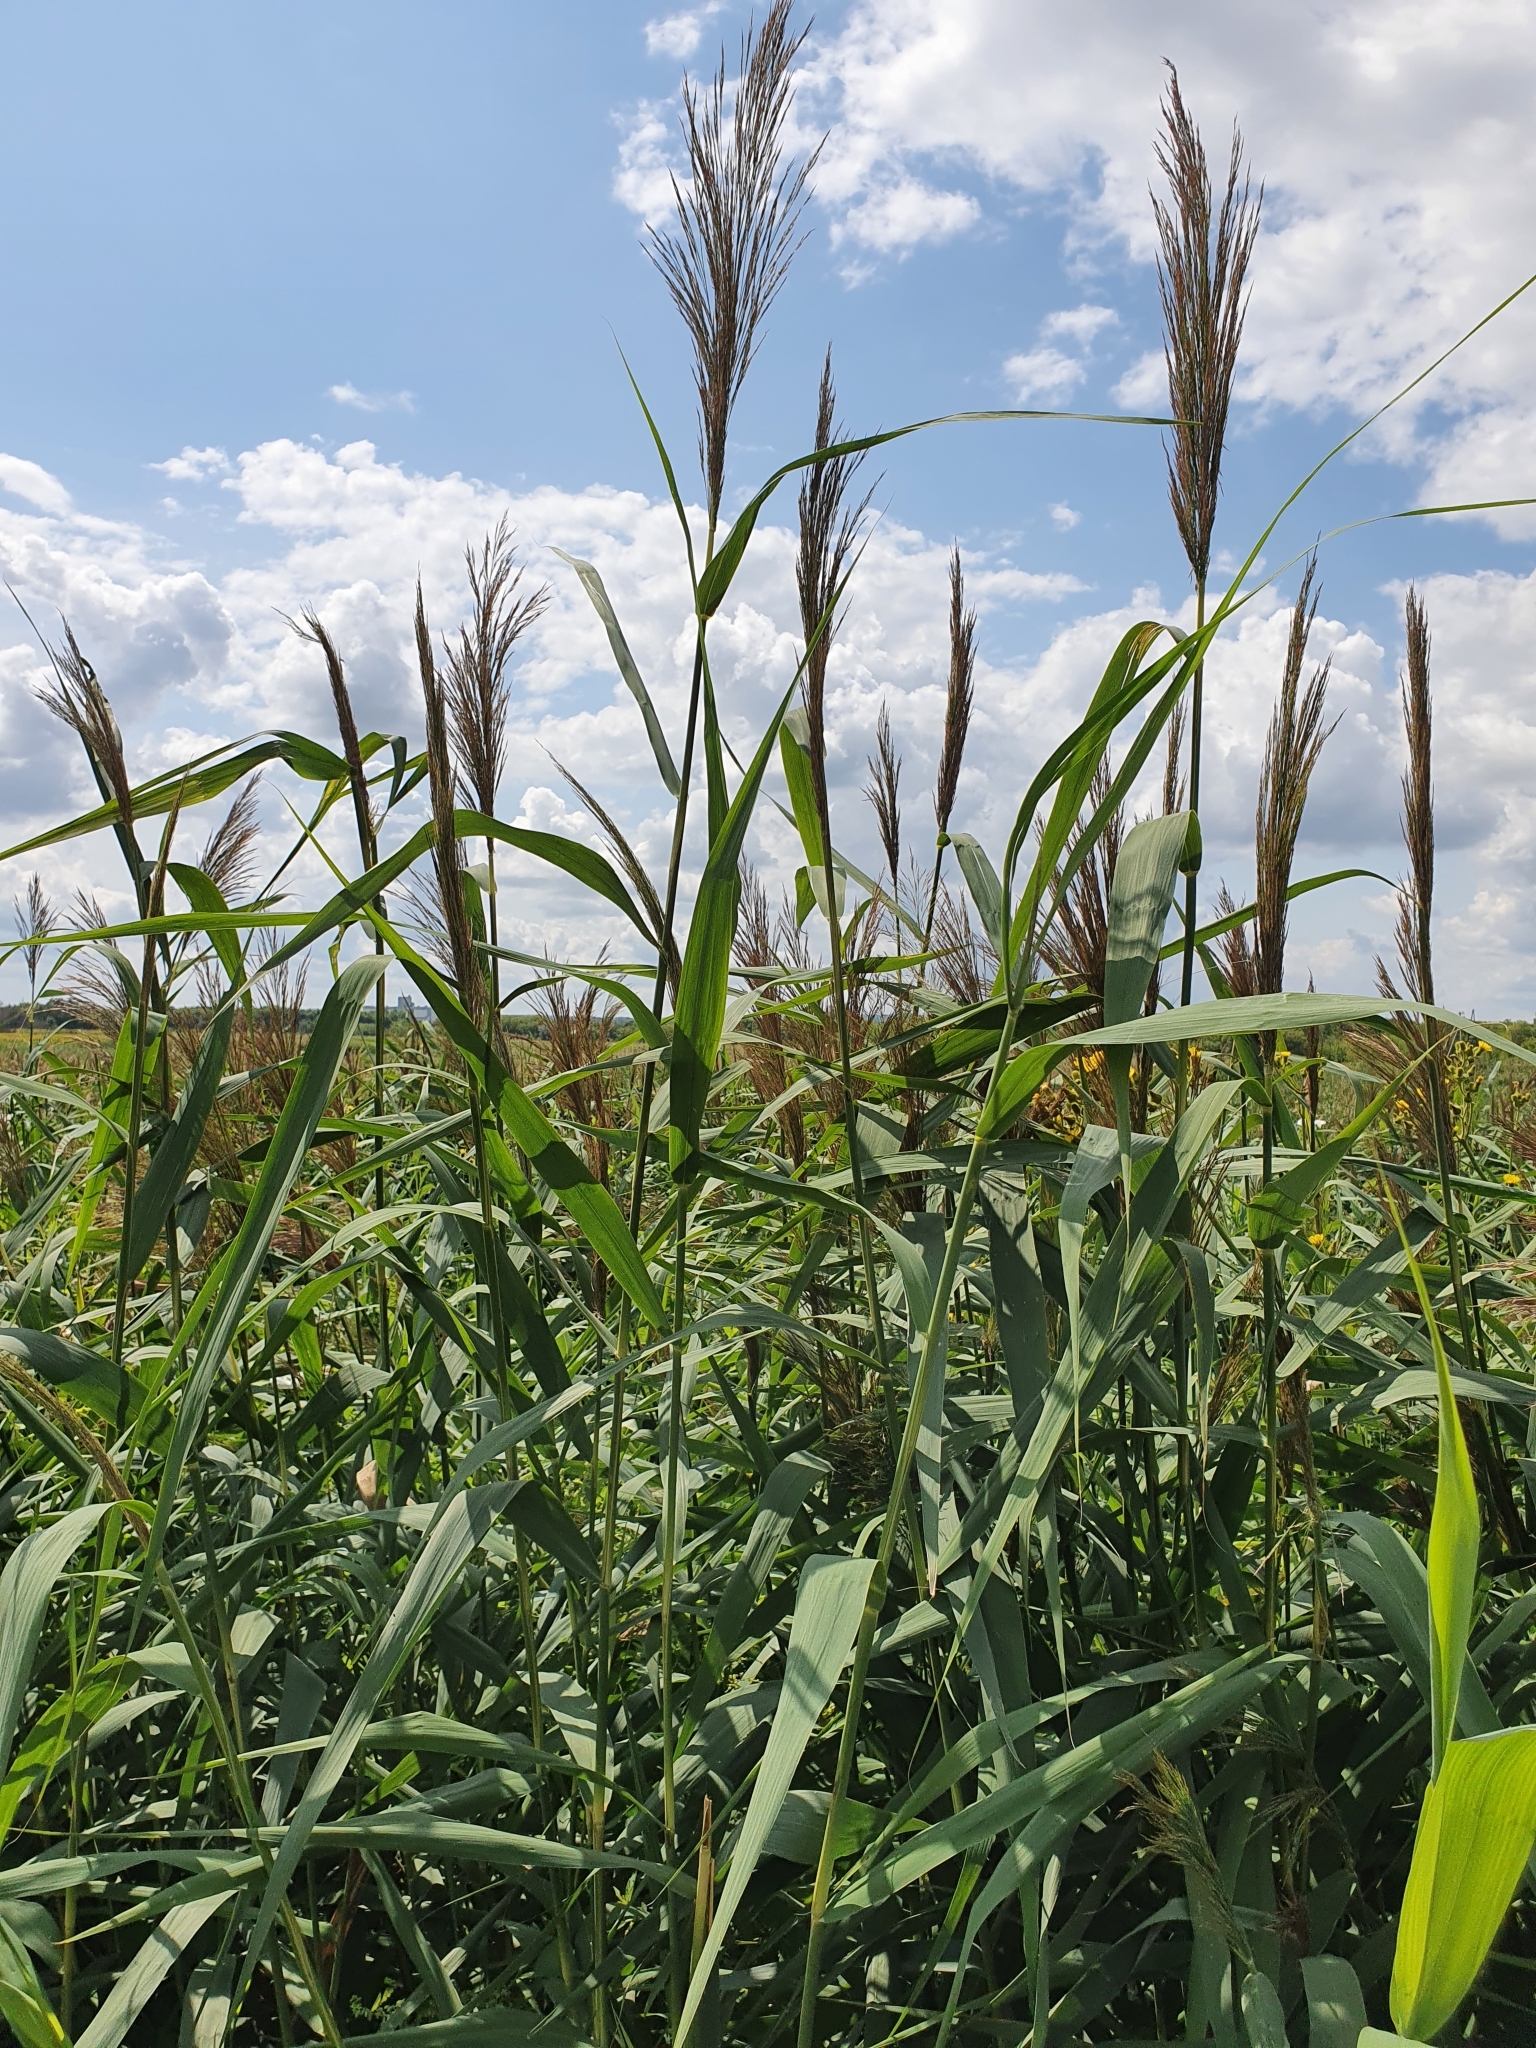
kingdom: Plantae
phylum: Tracheophyta
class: Liliopsida
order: Poales
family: Poaceae
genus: Phragmites
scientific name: Phragmites australis
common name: Common reed
